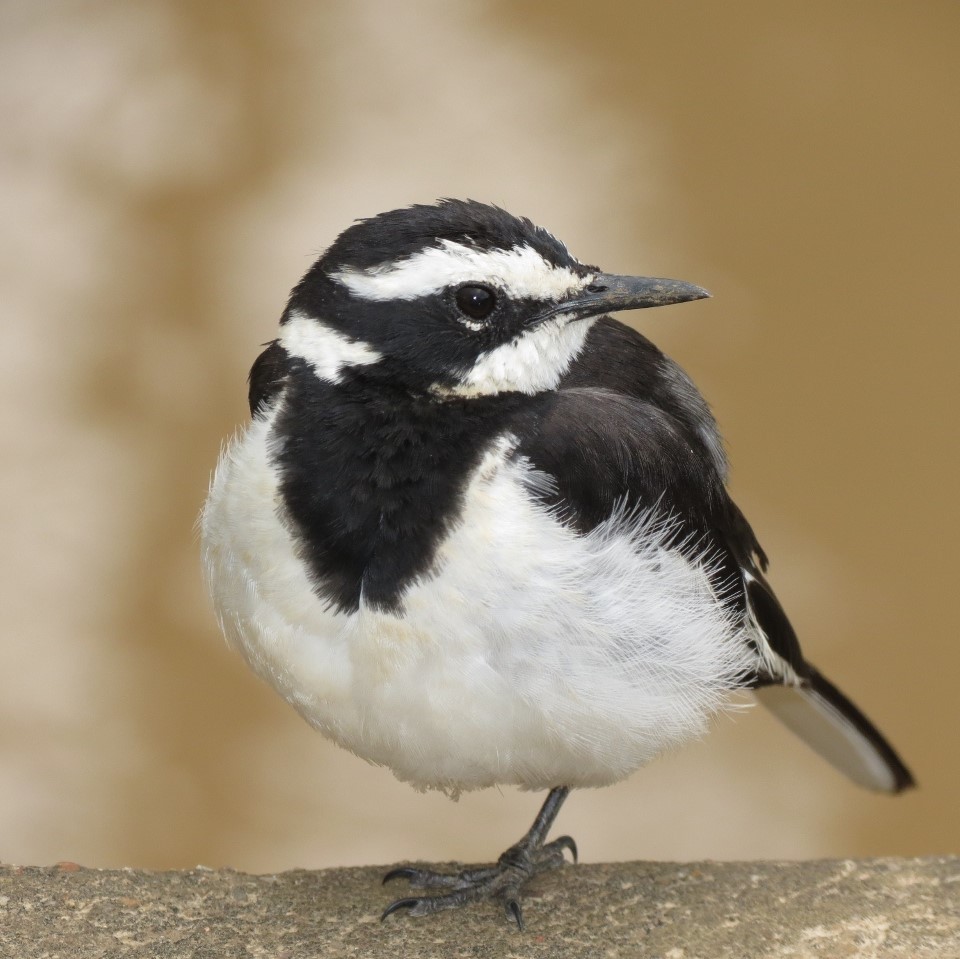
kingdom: Animalia
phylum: Chordata
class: Aves
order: Passeriformes
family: Motacillidae
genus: Motacilla
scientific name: Motacilla aguimp
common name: African pied wagtail
